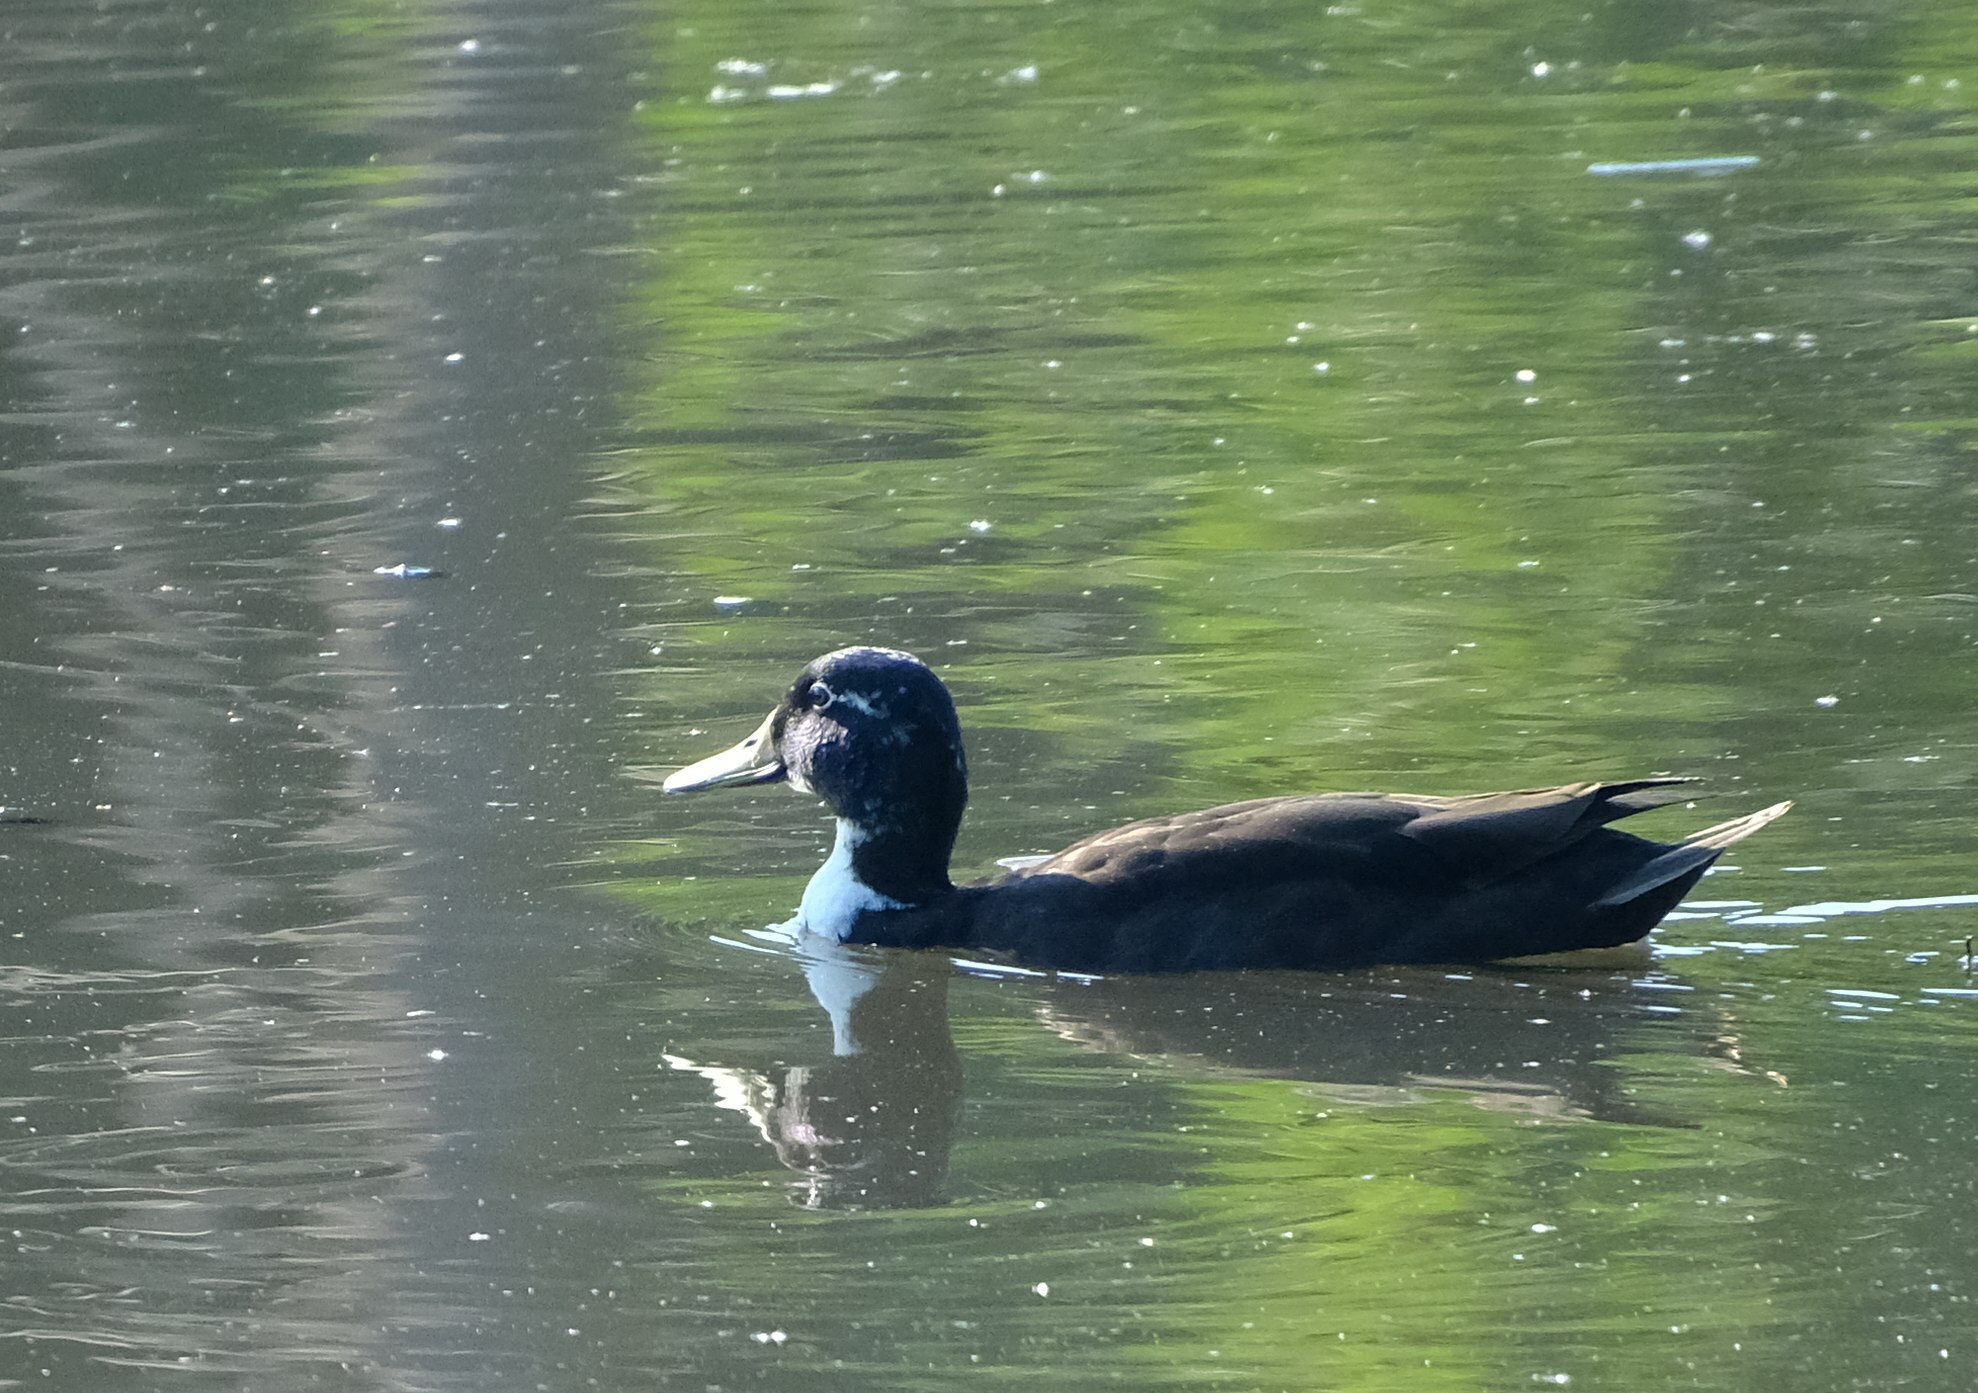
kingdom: Animalia
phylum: Chordata
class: Aves
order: Anseriformes
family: Anatidae
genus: Anas
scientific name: Anas platyrhynchos
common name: Mallard
